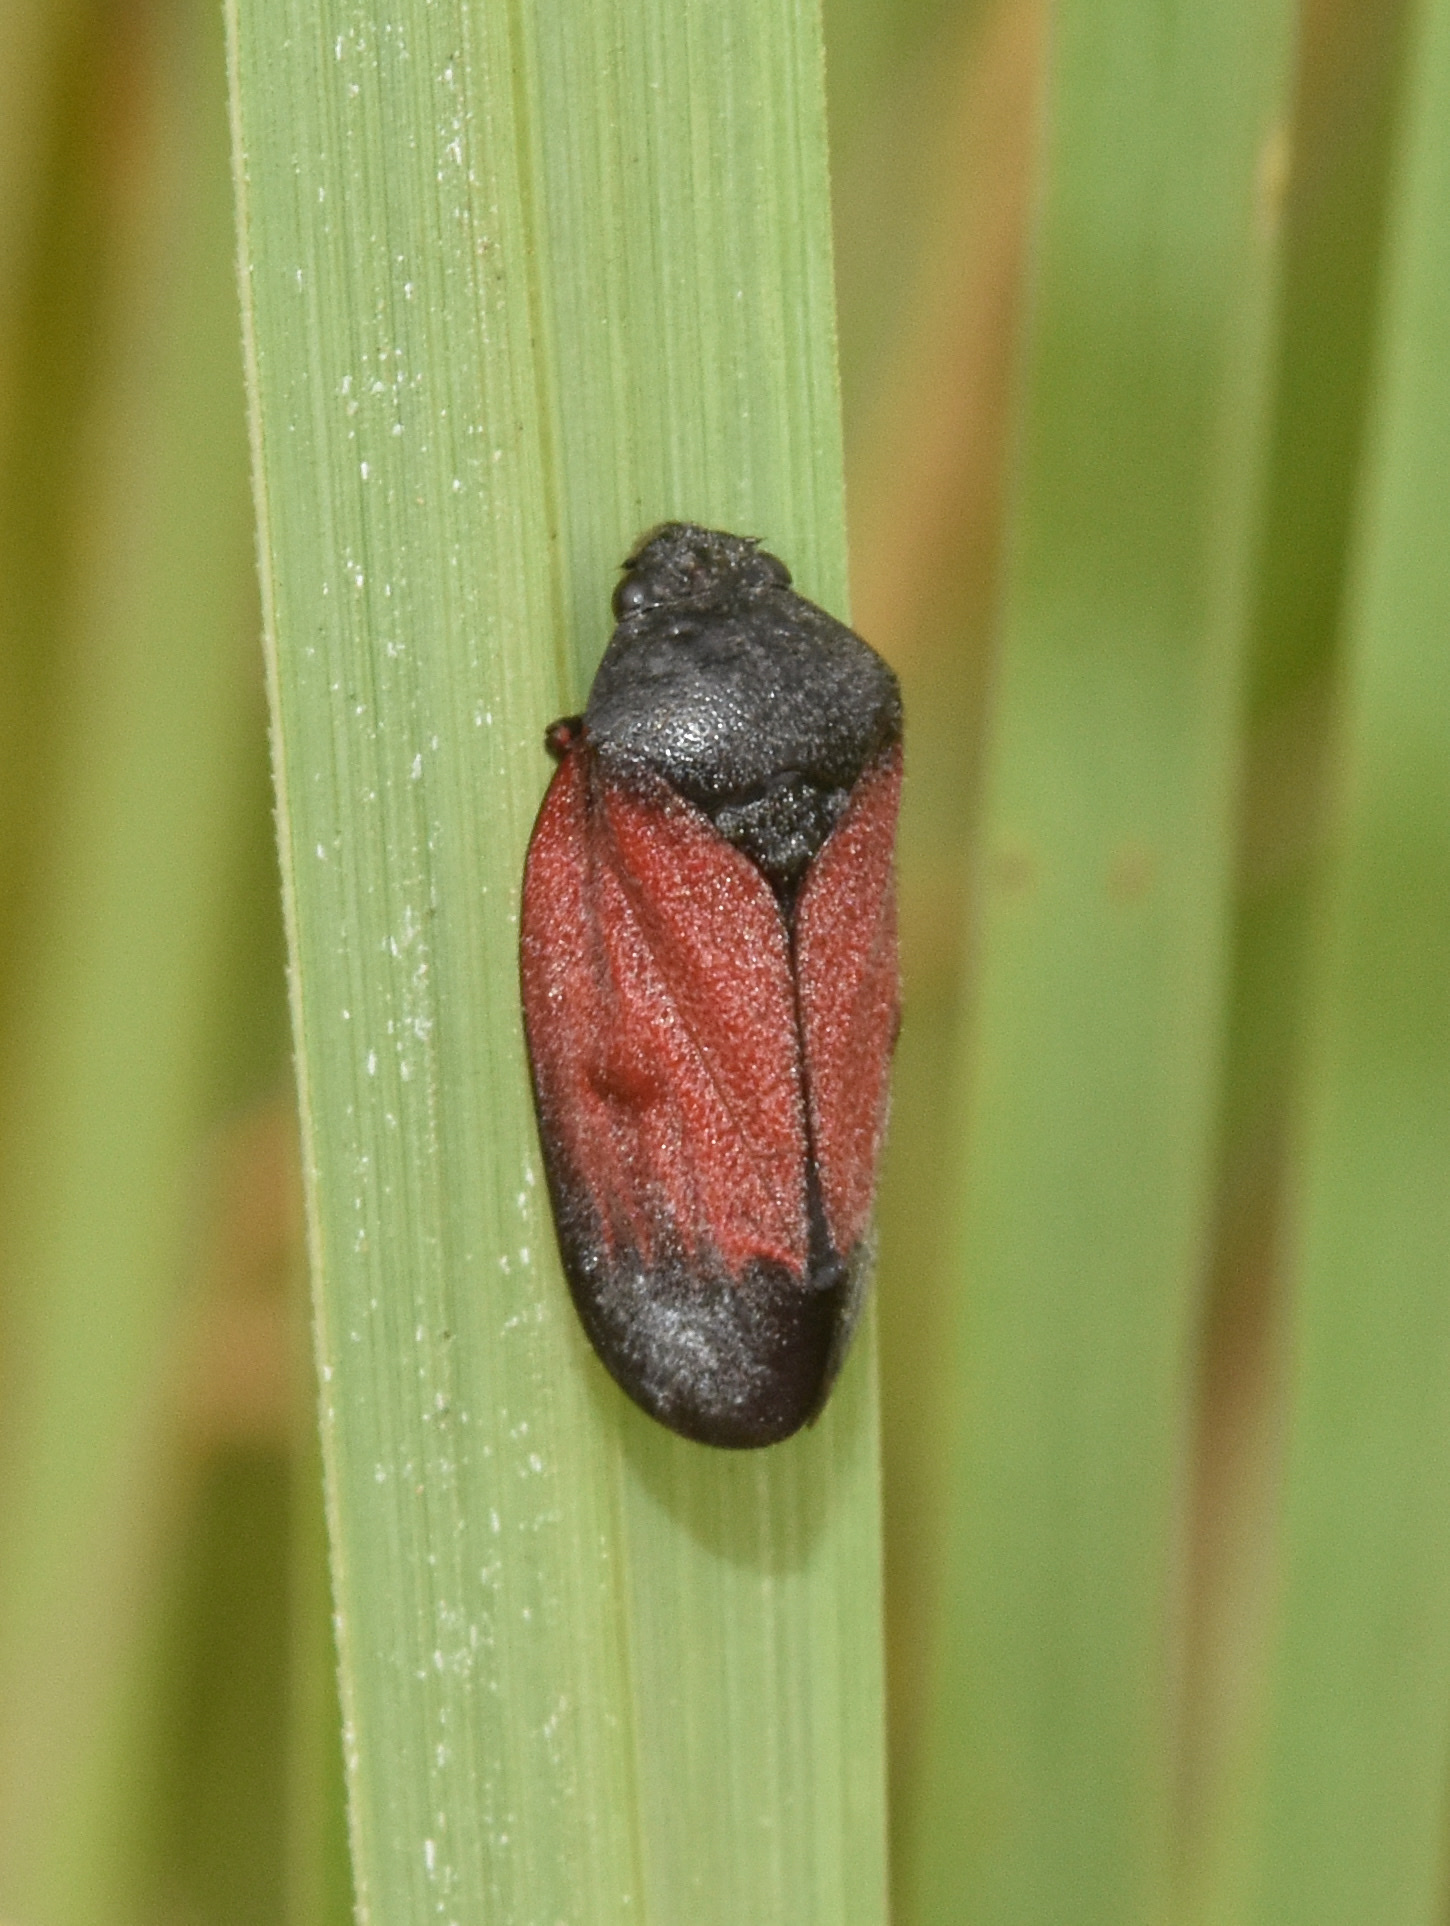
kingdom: Animalia
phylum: Arthropoda
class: Insecta
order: Hemiptera
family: Cercopidae
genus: Locris
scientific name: Locris rubida
